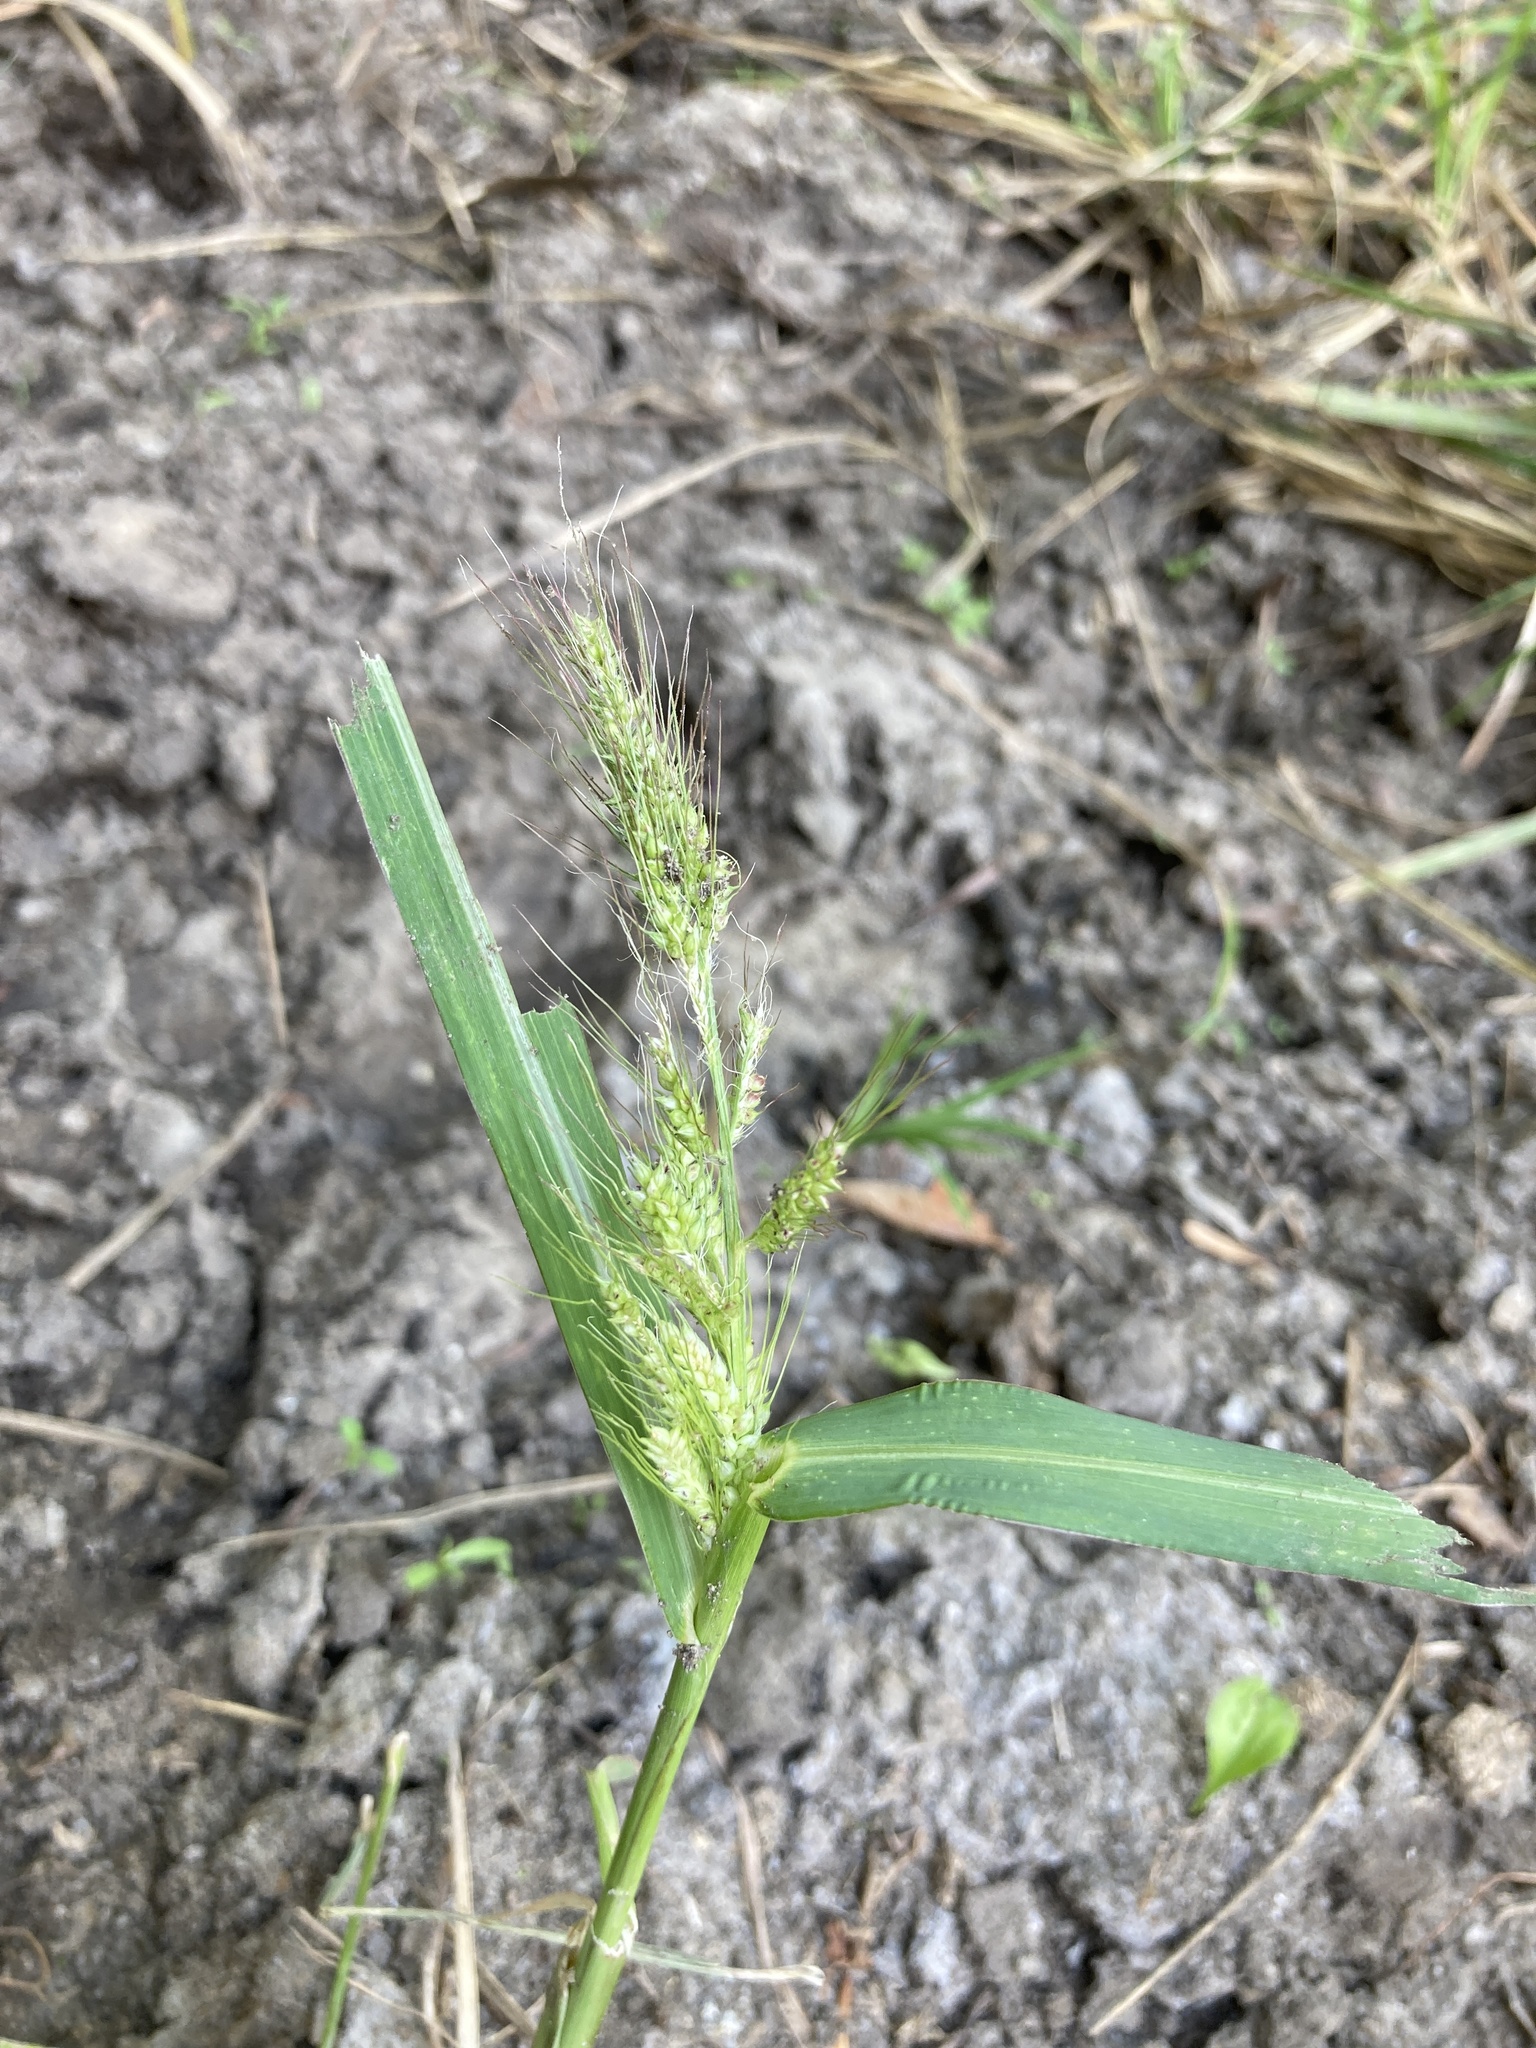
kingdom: Plantae
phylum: Tracheophyta
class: Liliopsida
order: Poales
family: Poaceae
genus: Echinochloa
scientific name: Echinochloa crus-galli
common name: Cockspur
